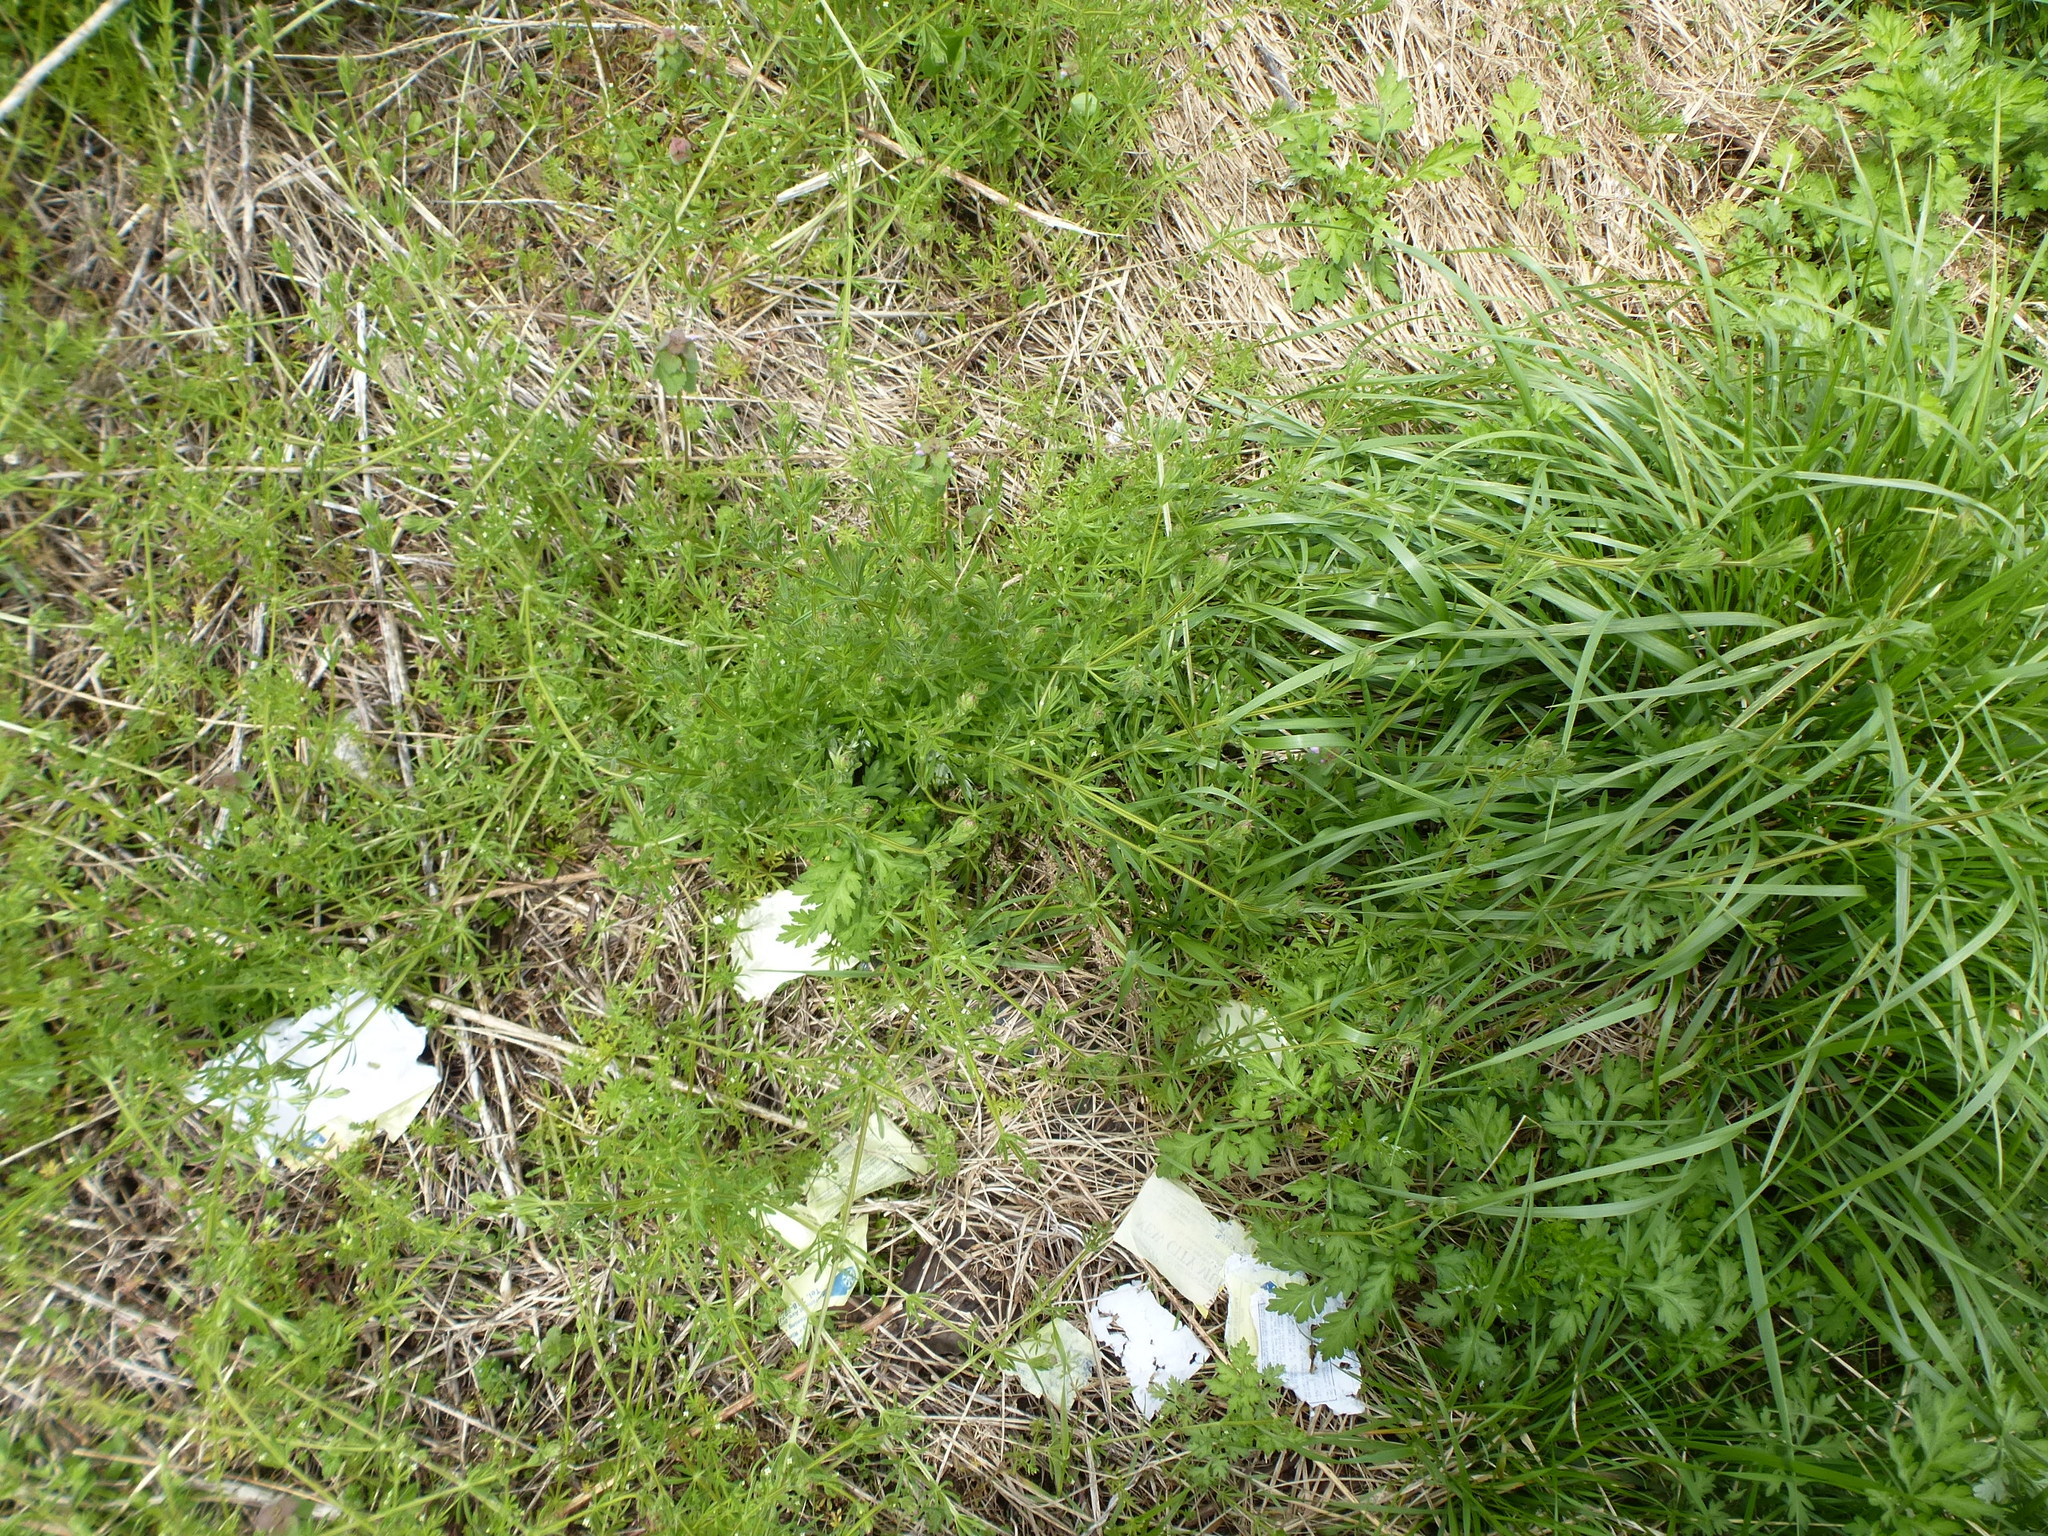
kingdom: Plantae
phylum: Tracheophyta
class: Magnoliopsida
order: Gentianales
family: Rubiaceae
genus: Galium
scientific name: Galium aparine
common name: Cleavers
